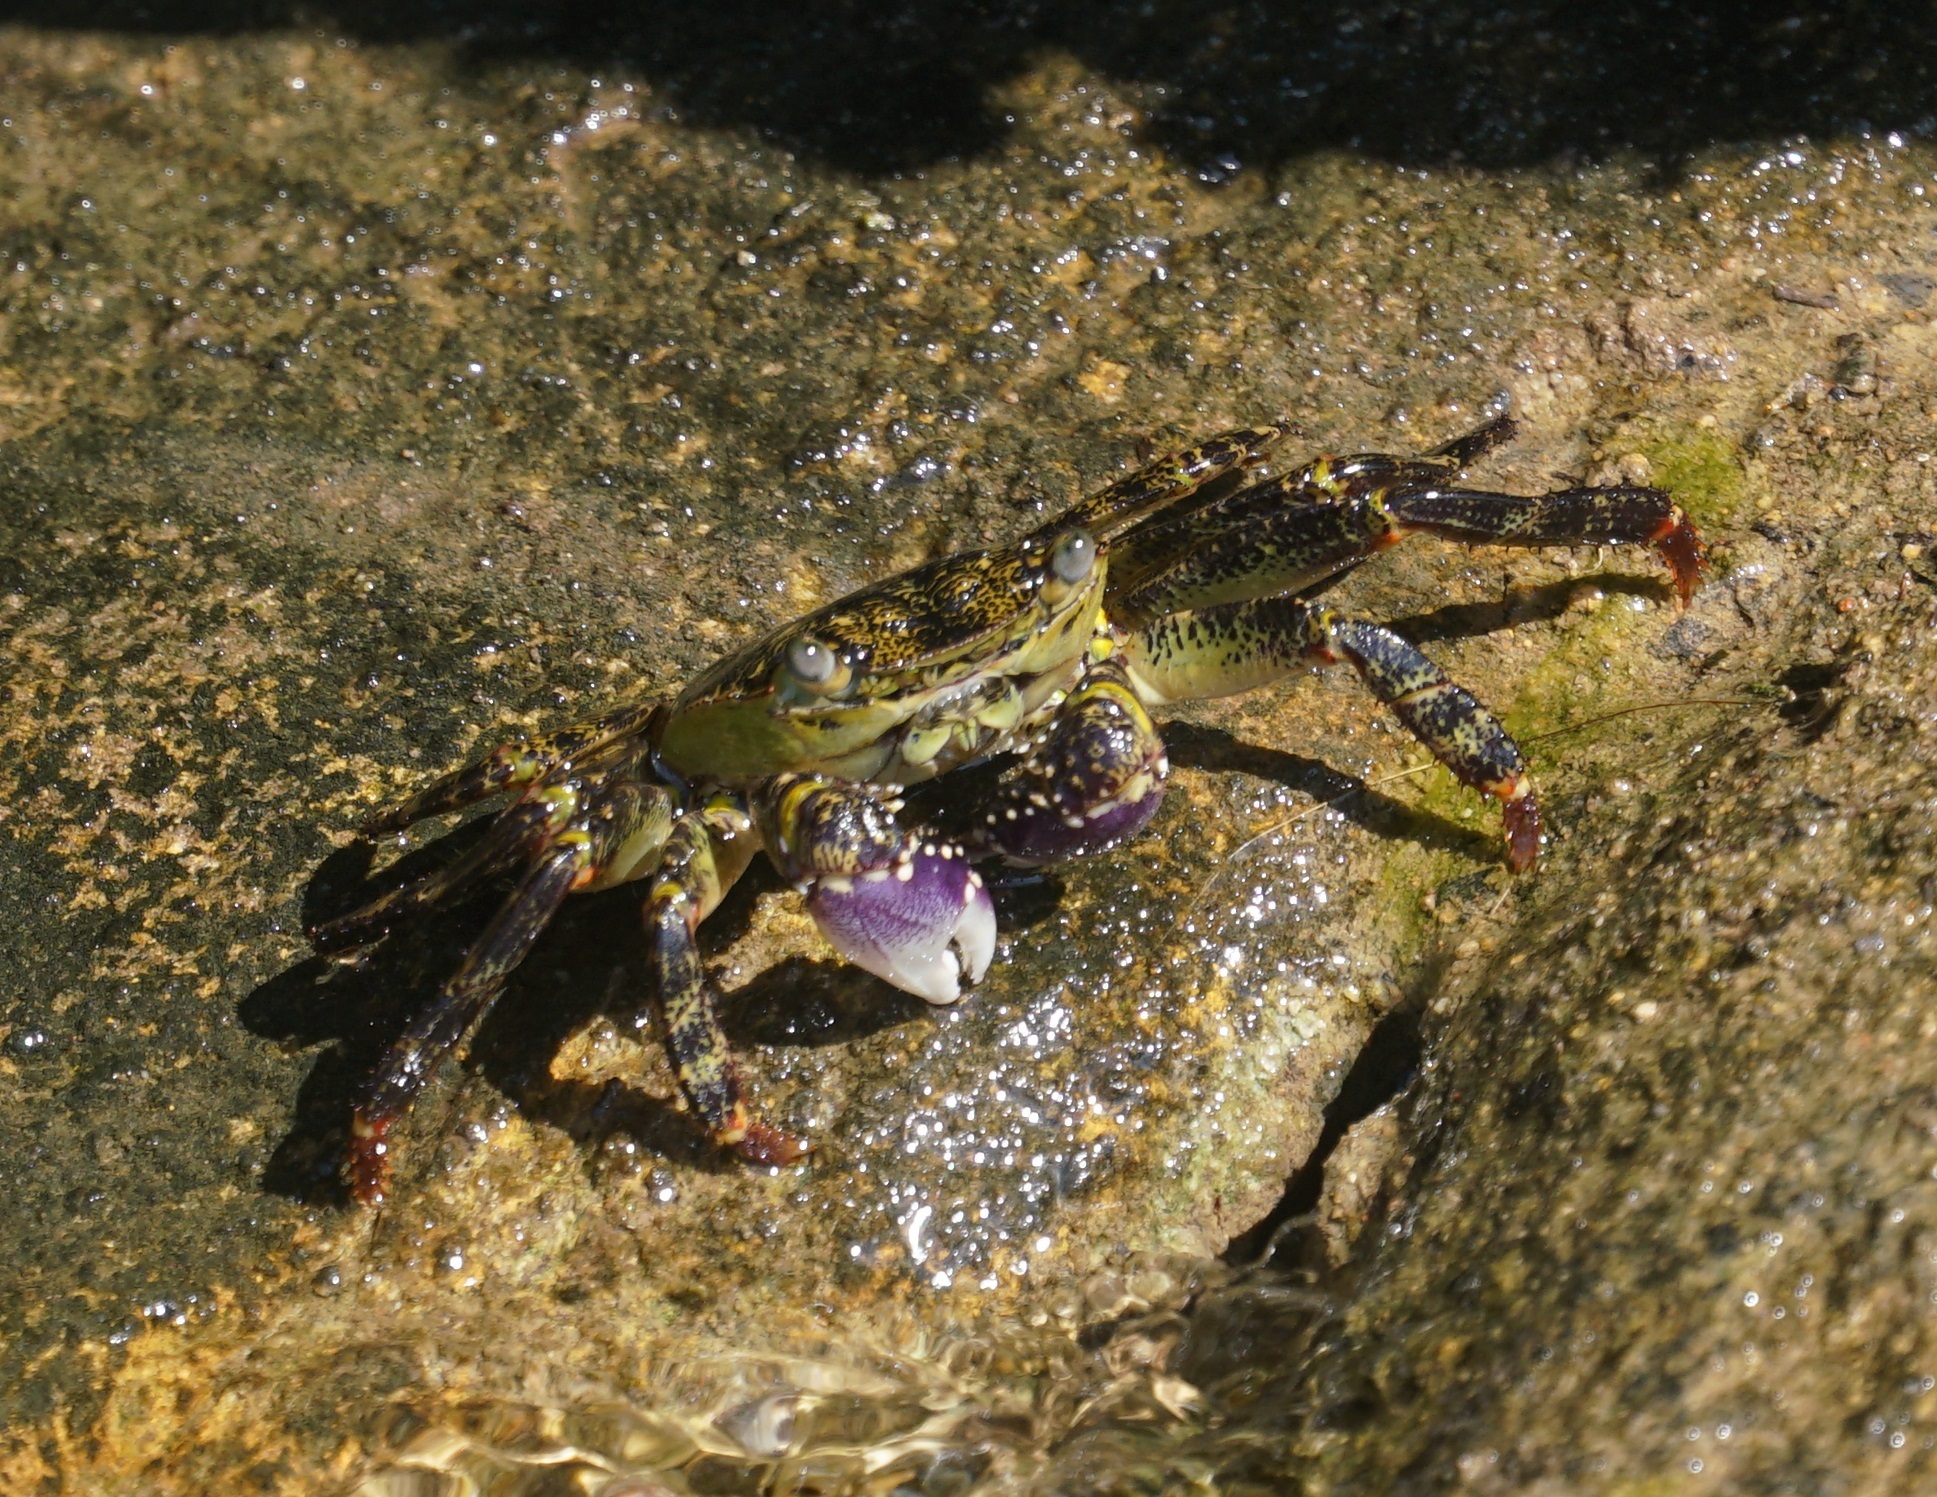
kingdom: Animalia
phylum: Arthropoda
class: Malacostraca
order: Decapoda
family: Grapsidae
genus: Leptograpsus
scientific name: Leptograpsus variegatus
